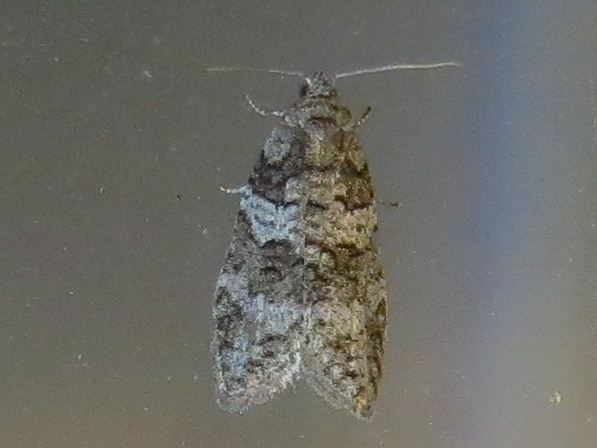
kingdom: Animalia
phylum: Arthropoda
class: Insecta
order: Lepidoptera
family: Tortricidae
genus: Decodes
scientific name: Decodes basiplagana
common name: Gray-marked tortricid
